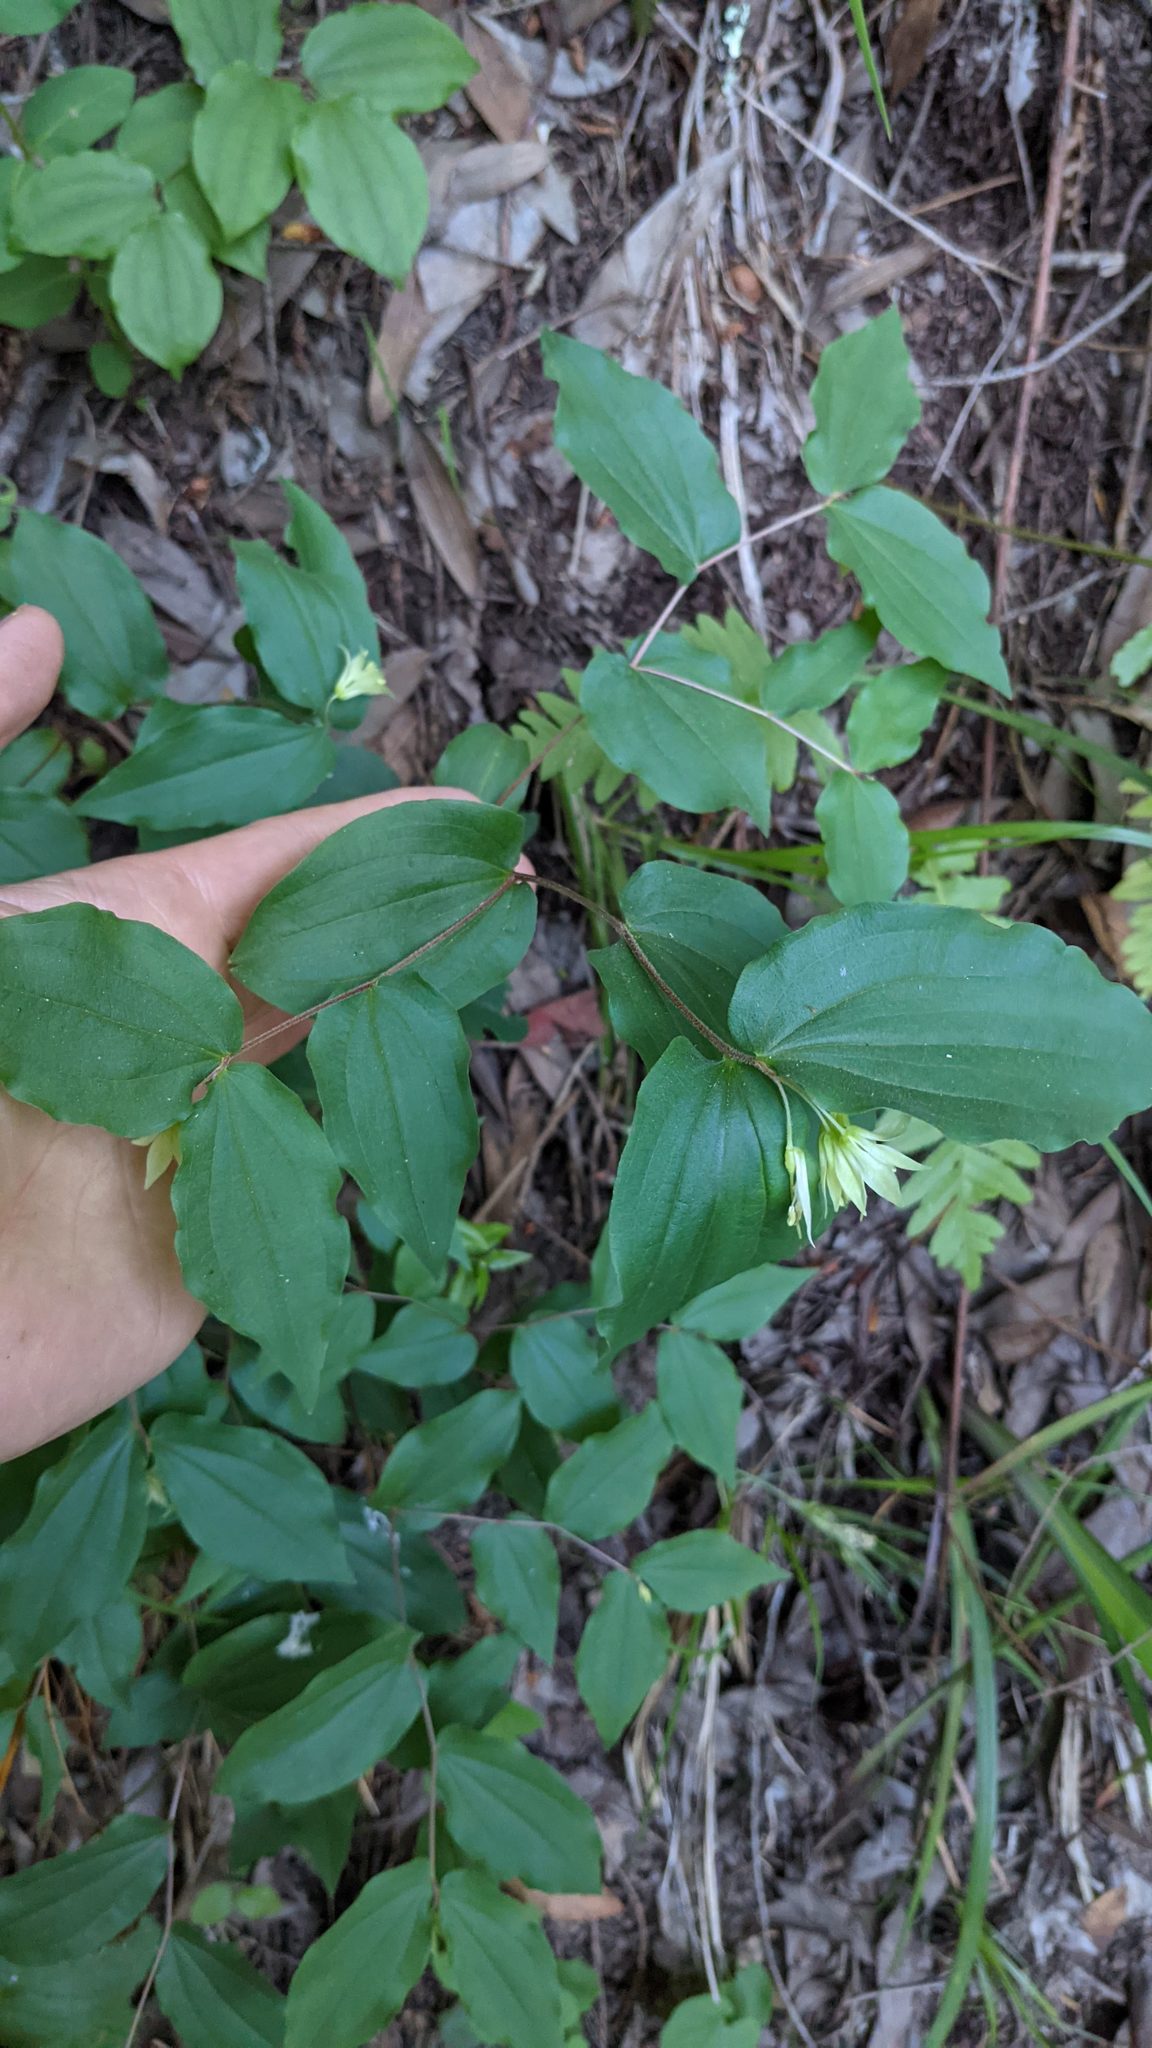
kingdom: Plantae
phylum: Tracheophyta
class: Liliopsida
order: Liliales
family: Liliaceae
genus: Prosartes
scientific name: Prosartes hookeri
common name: Fairy-bells
